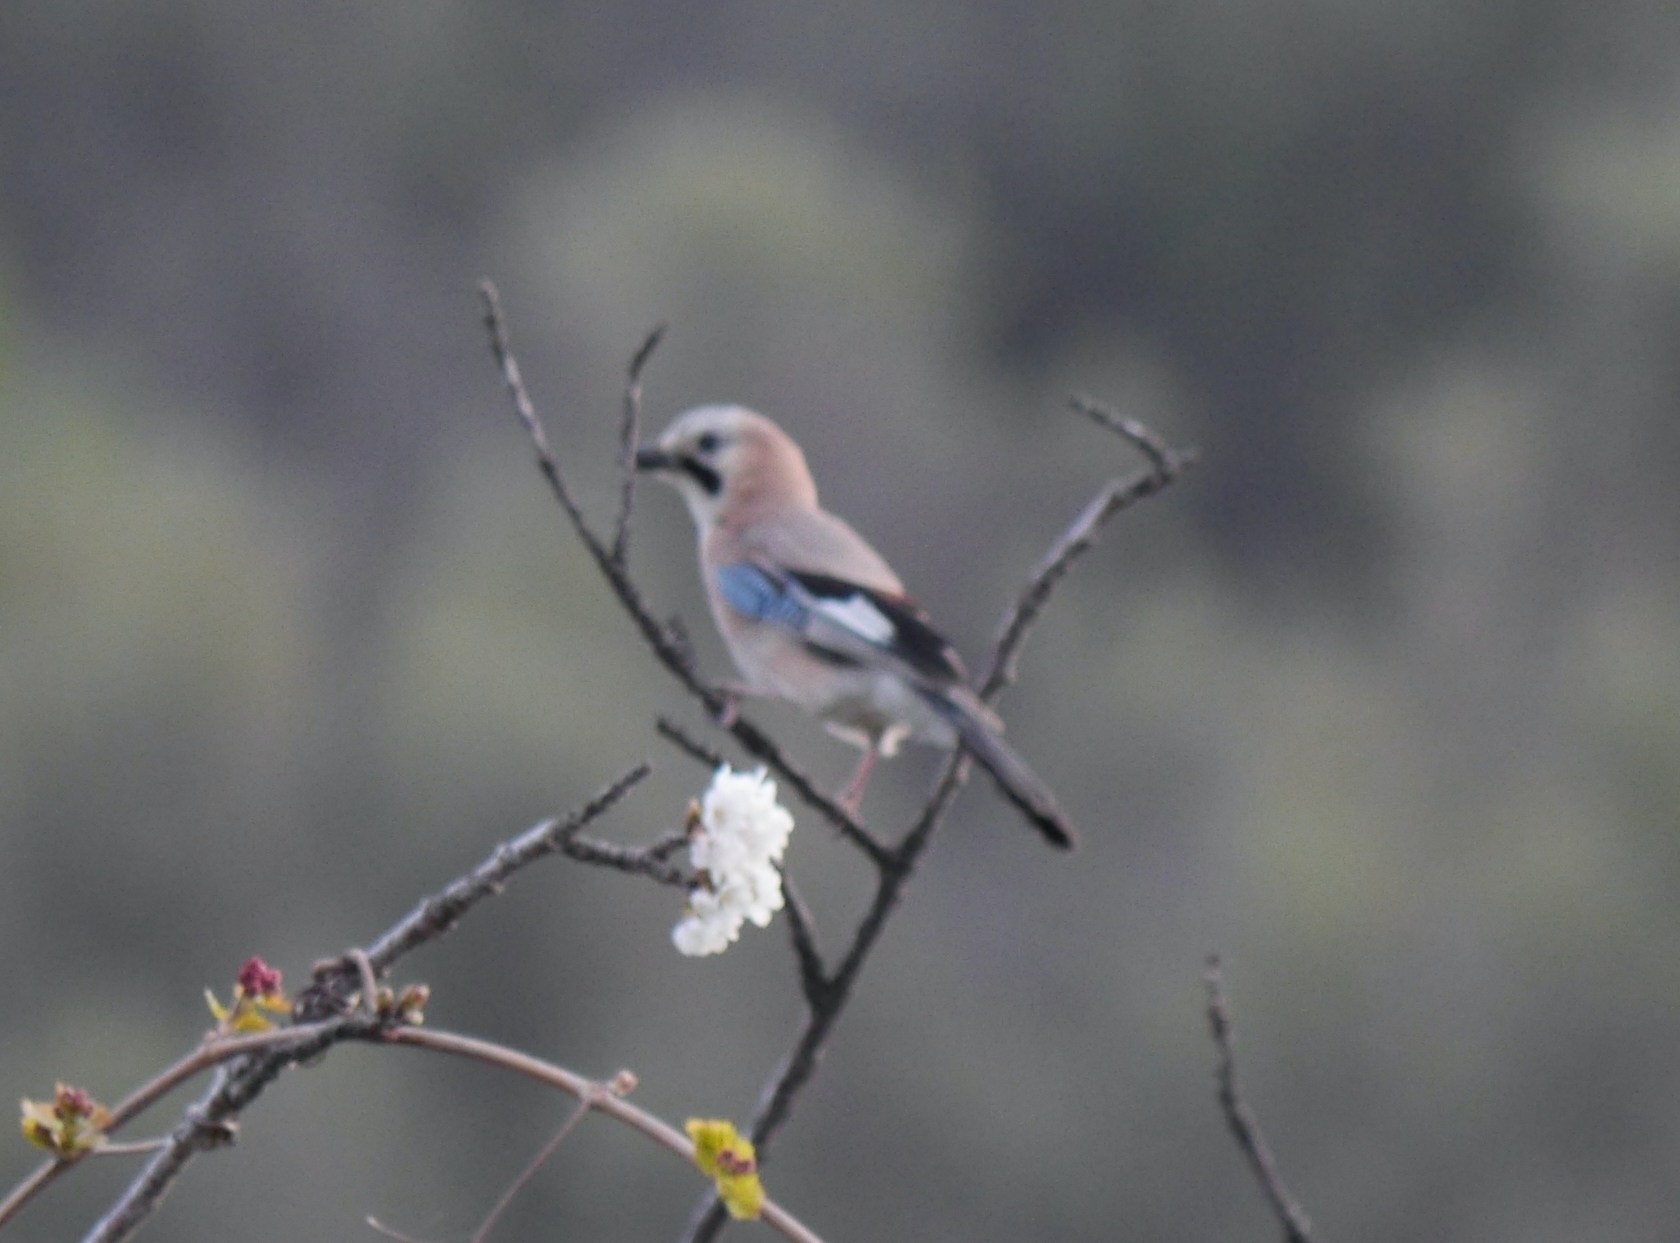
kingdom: Animalia
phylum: Chordata
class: Aves
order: Passeriformes
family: Corvidae
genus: Garrulus
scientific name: Garrulus glandarius
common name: Eurasian jay
